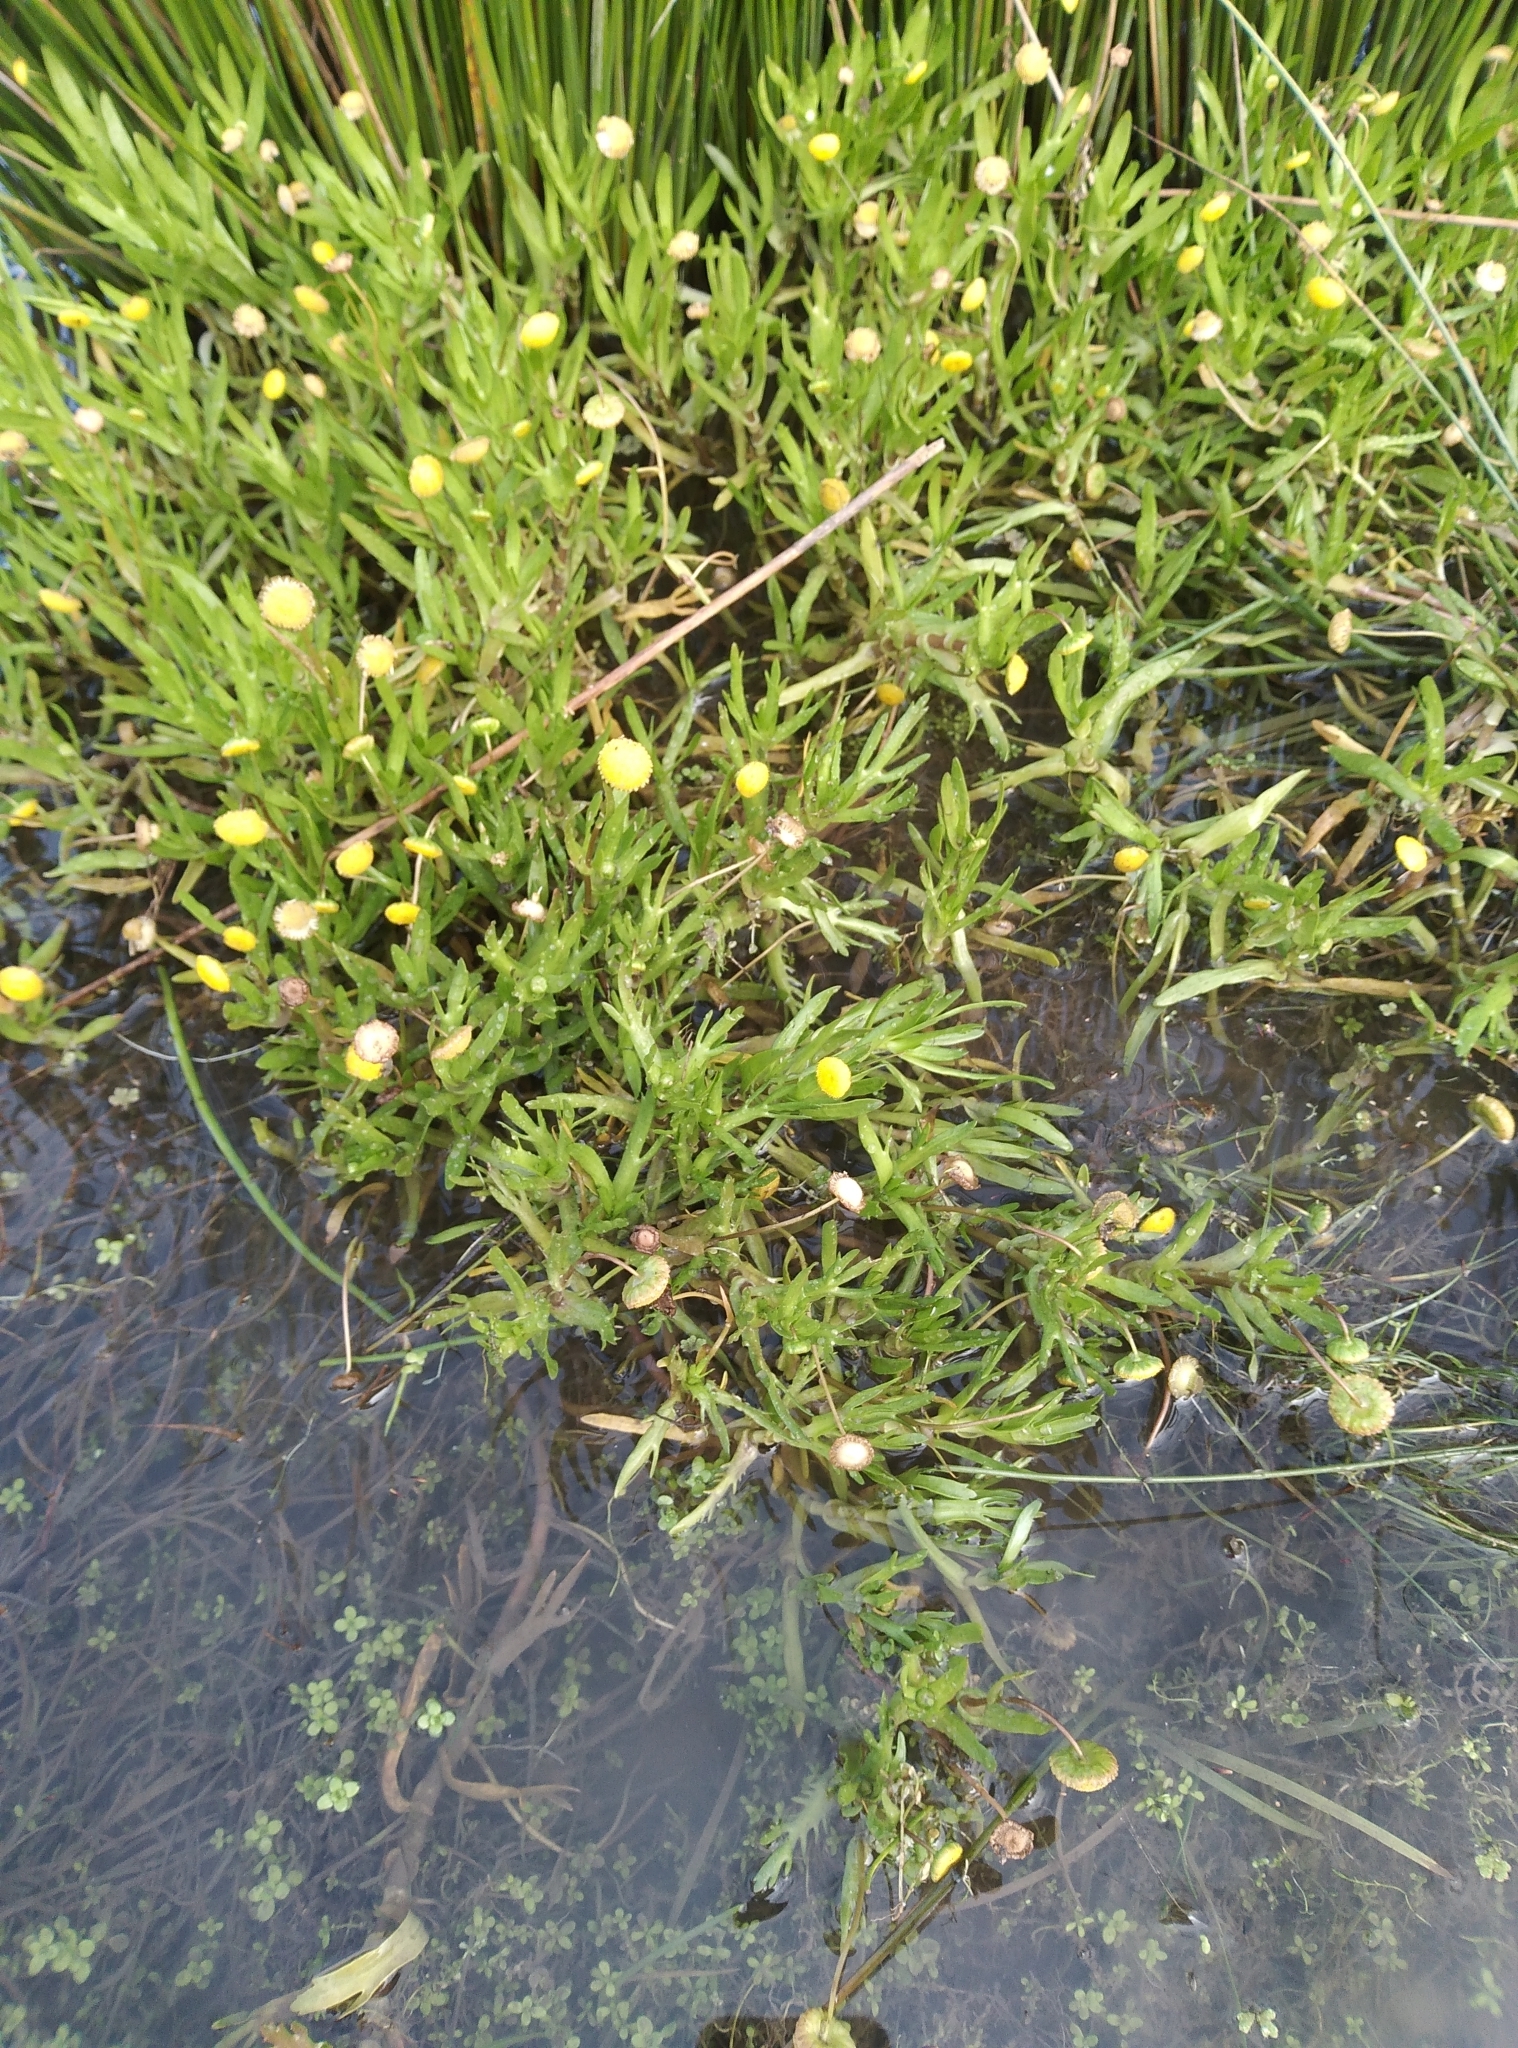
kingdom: Plantae
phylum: Tracheophyta
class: Magnoliopsida
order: Asterales
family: Asteraceae
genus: Cotula
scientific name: Cotula coronopifolia
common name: Buttonweed
